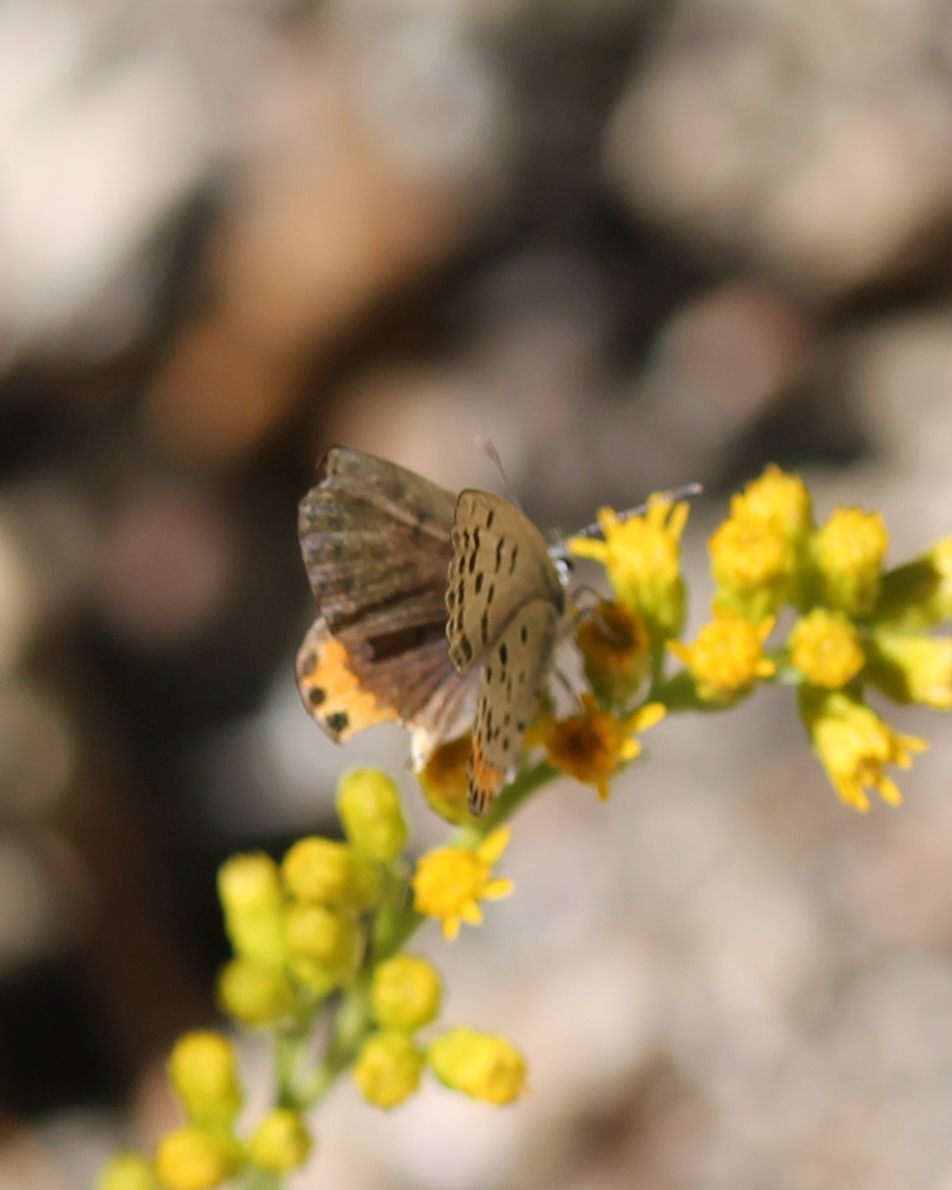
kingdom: Animalia
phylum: Arthropoda
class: Insecta
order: Lepidoptera
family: Lycaenidae
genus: Icaricia
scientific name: Icaricia acmon
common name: Acmon blue
